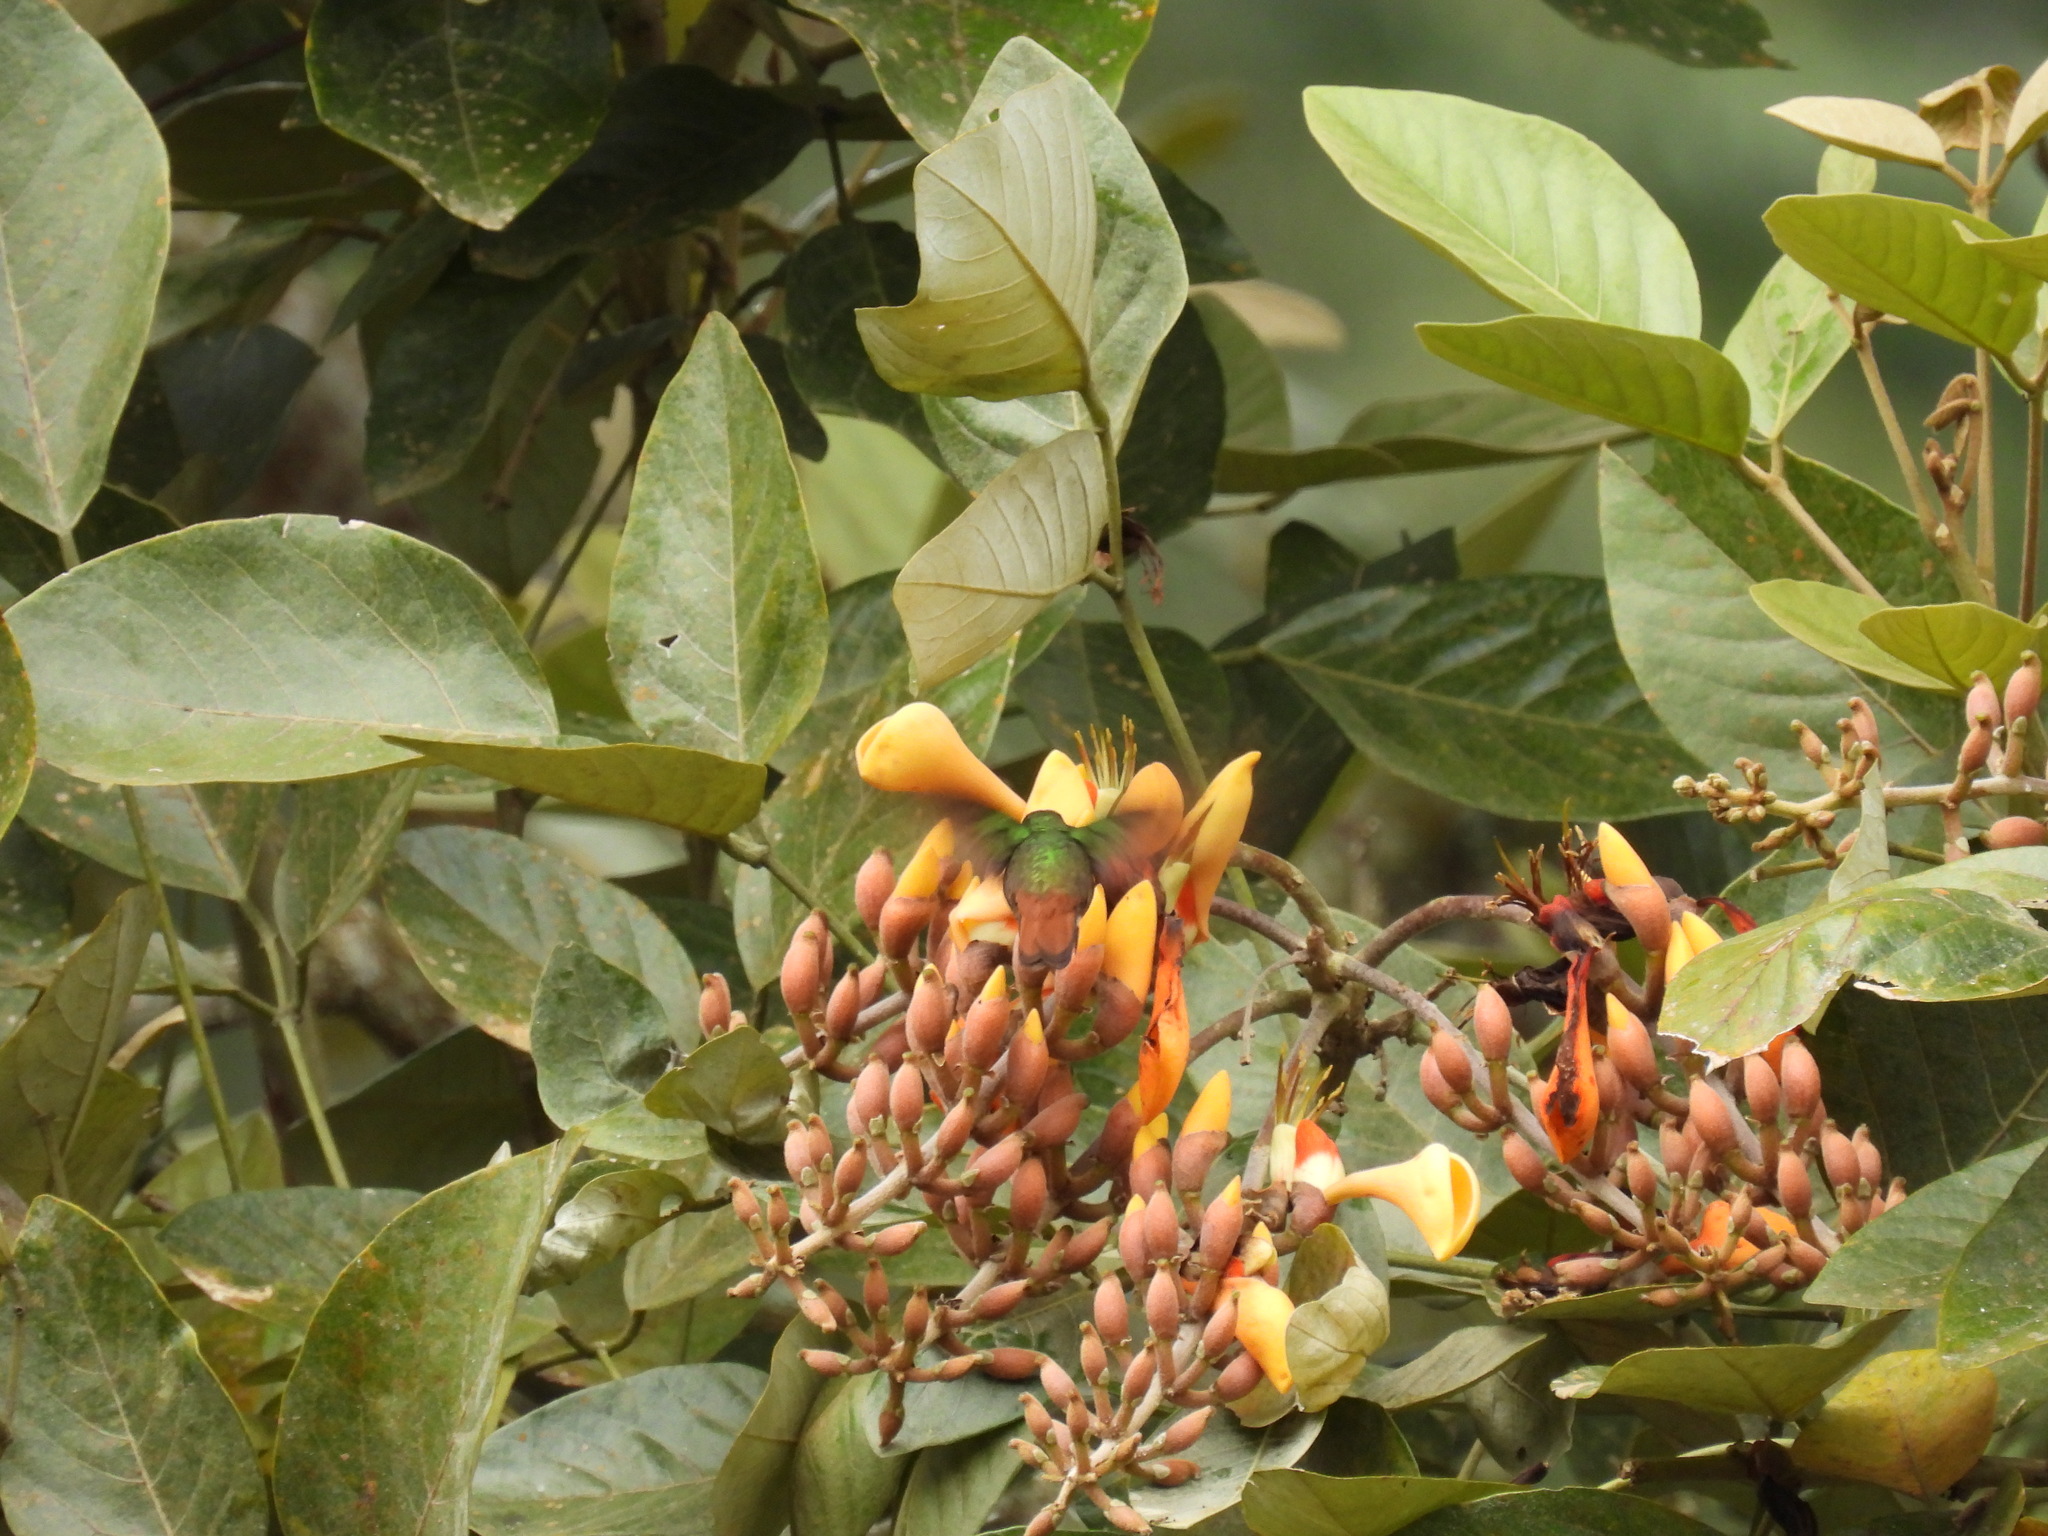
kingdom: Animalia
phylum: Chordata
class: Aves
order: Apodiformes
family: Trochilidae
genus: Amazilia
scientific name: Amazilia tzacatl
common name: Rufous-tailed hummingbird
